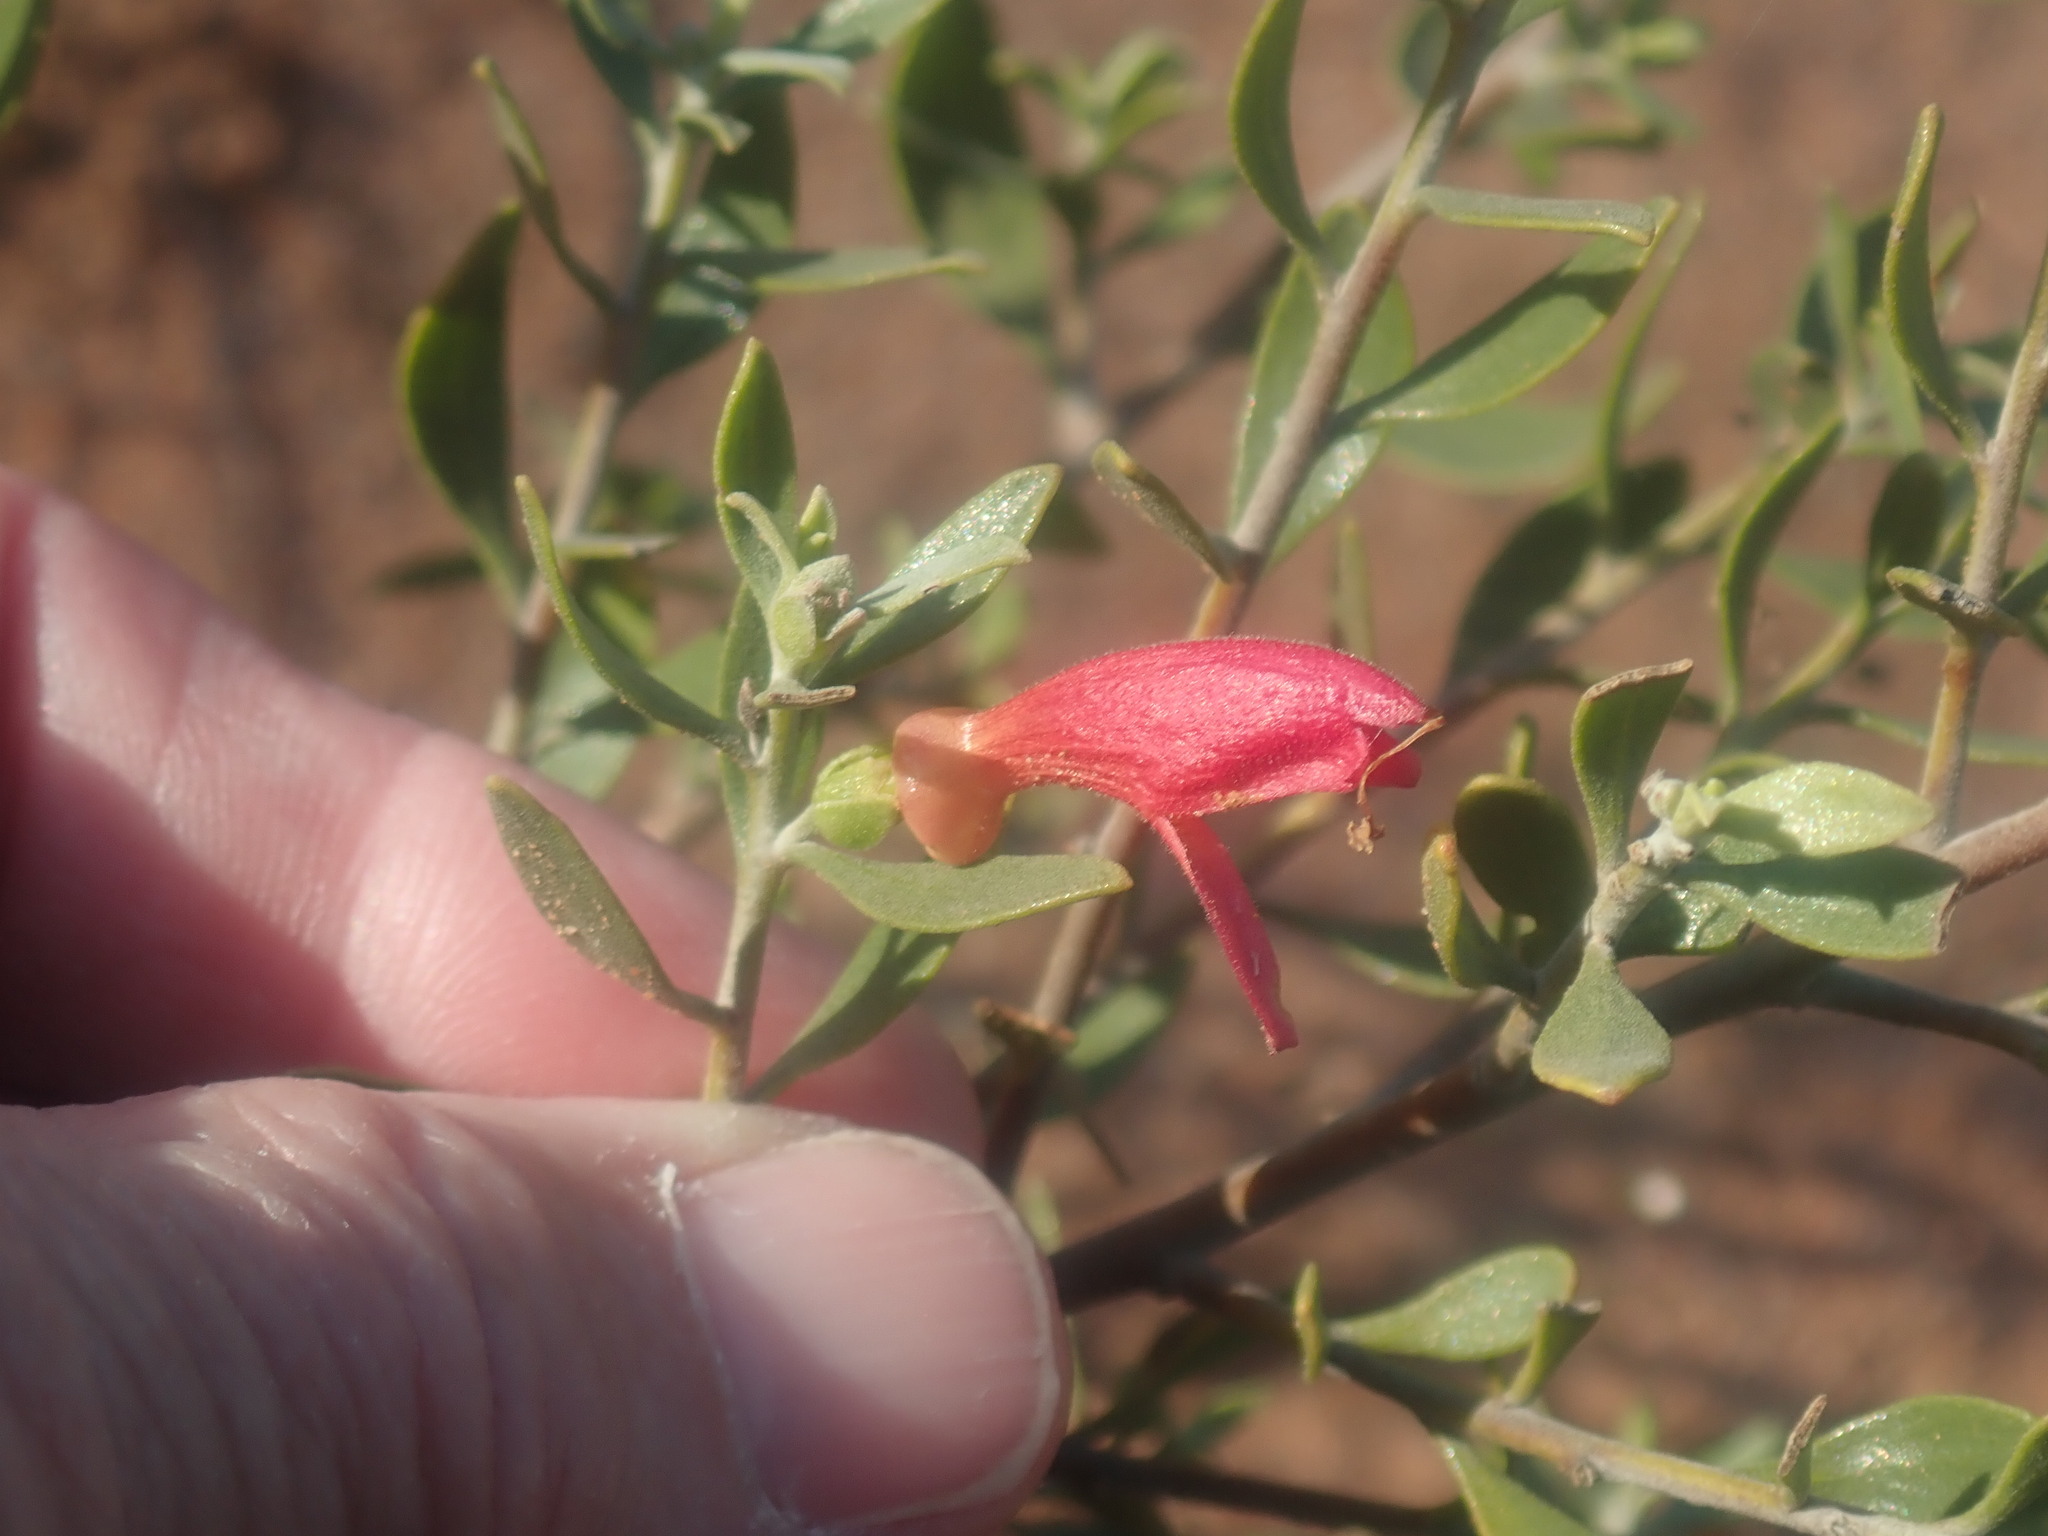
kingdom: Plantae
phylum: Tracheophyta
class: Magnoliopsida
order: Lamiales
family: Scrophulariaceae
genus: Eremophila
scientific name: Eremophila glabra
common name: Black-fuchsia
